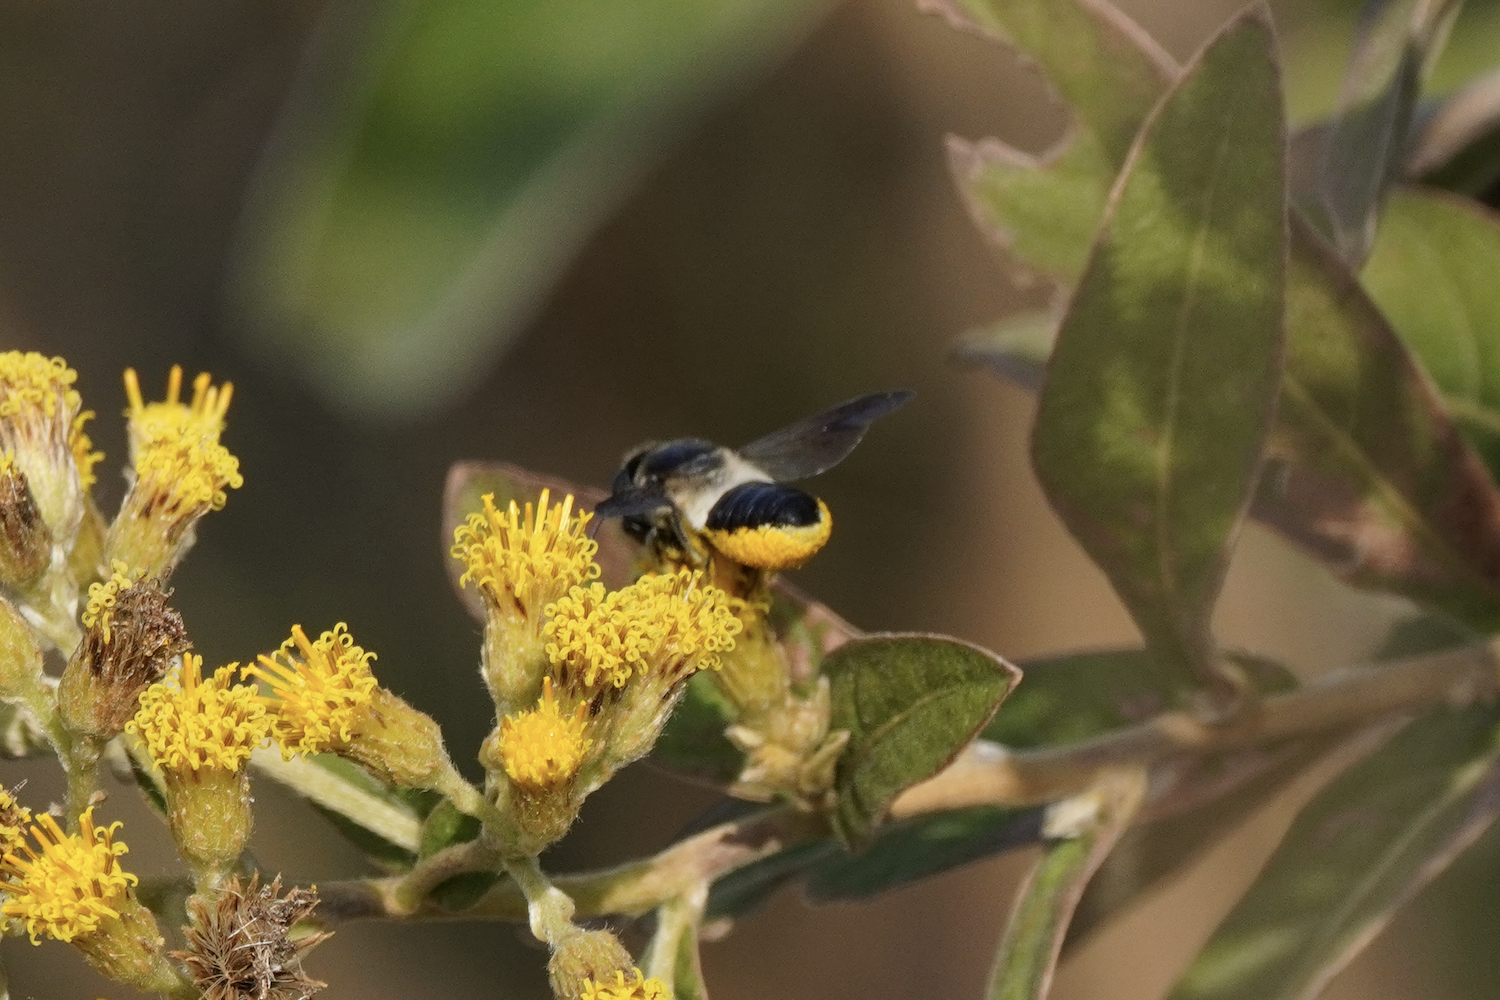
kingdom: Animalia
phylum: Arthropoda
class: Insecta
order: Hymenoptera
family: Megachilidae
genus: Megachile
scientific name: Megachile conjuncta
